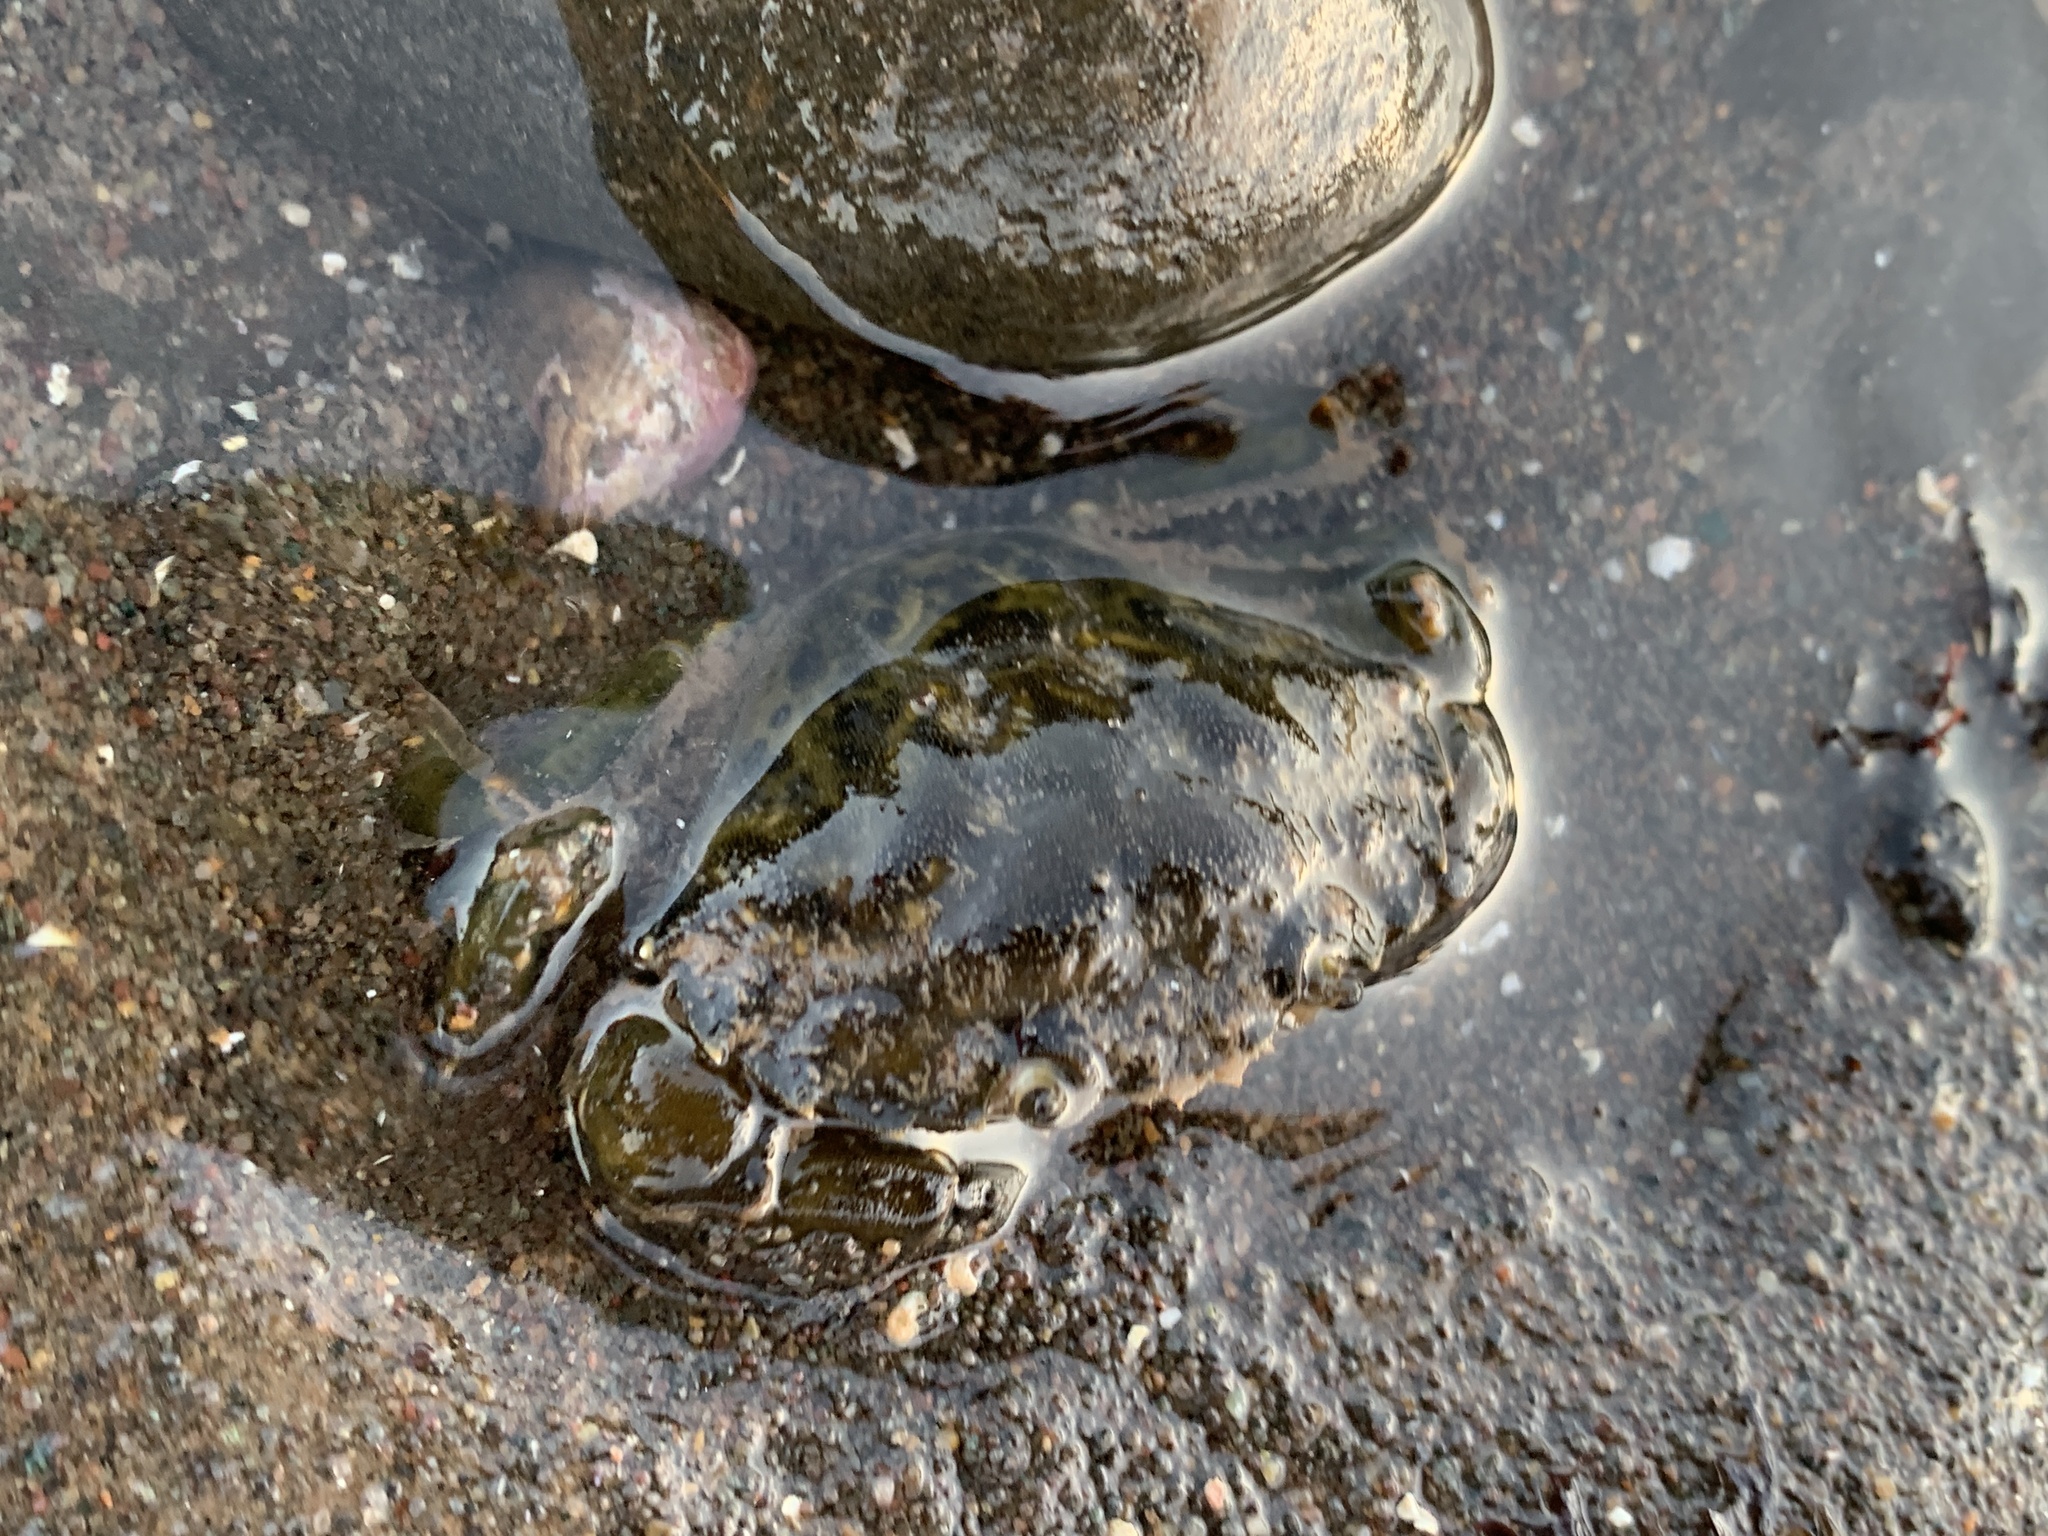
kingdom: Animalia
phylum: Arthropoda
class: Malacostraca
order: Decapoda
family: Carcinidae
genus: Carcinus
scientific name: Carcinus maenas
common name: European green crab
